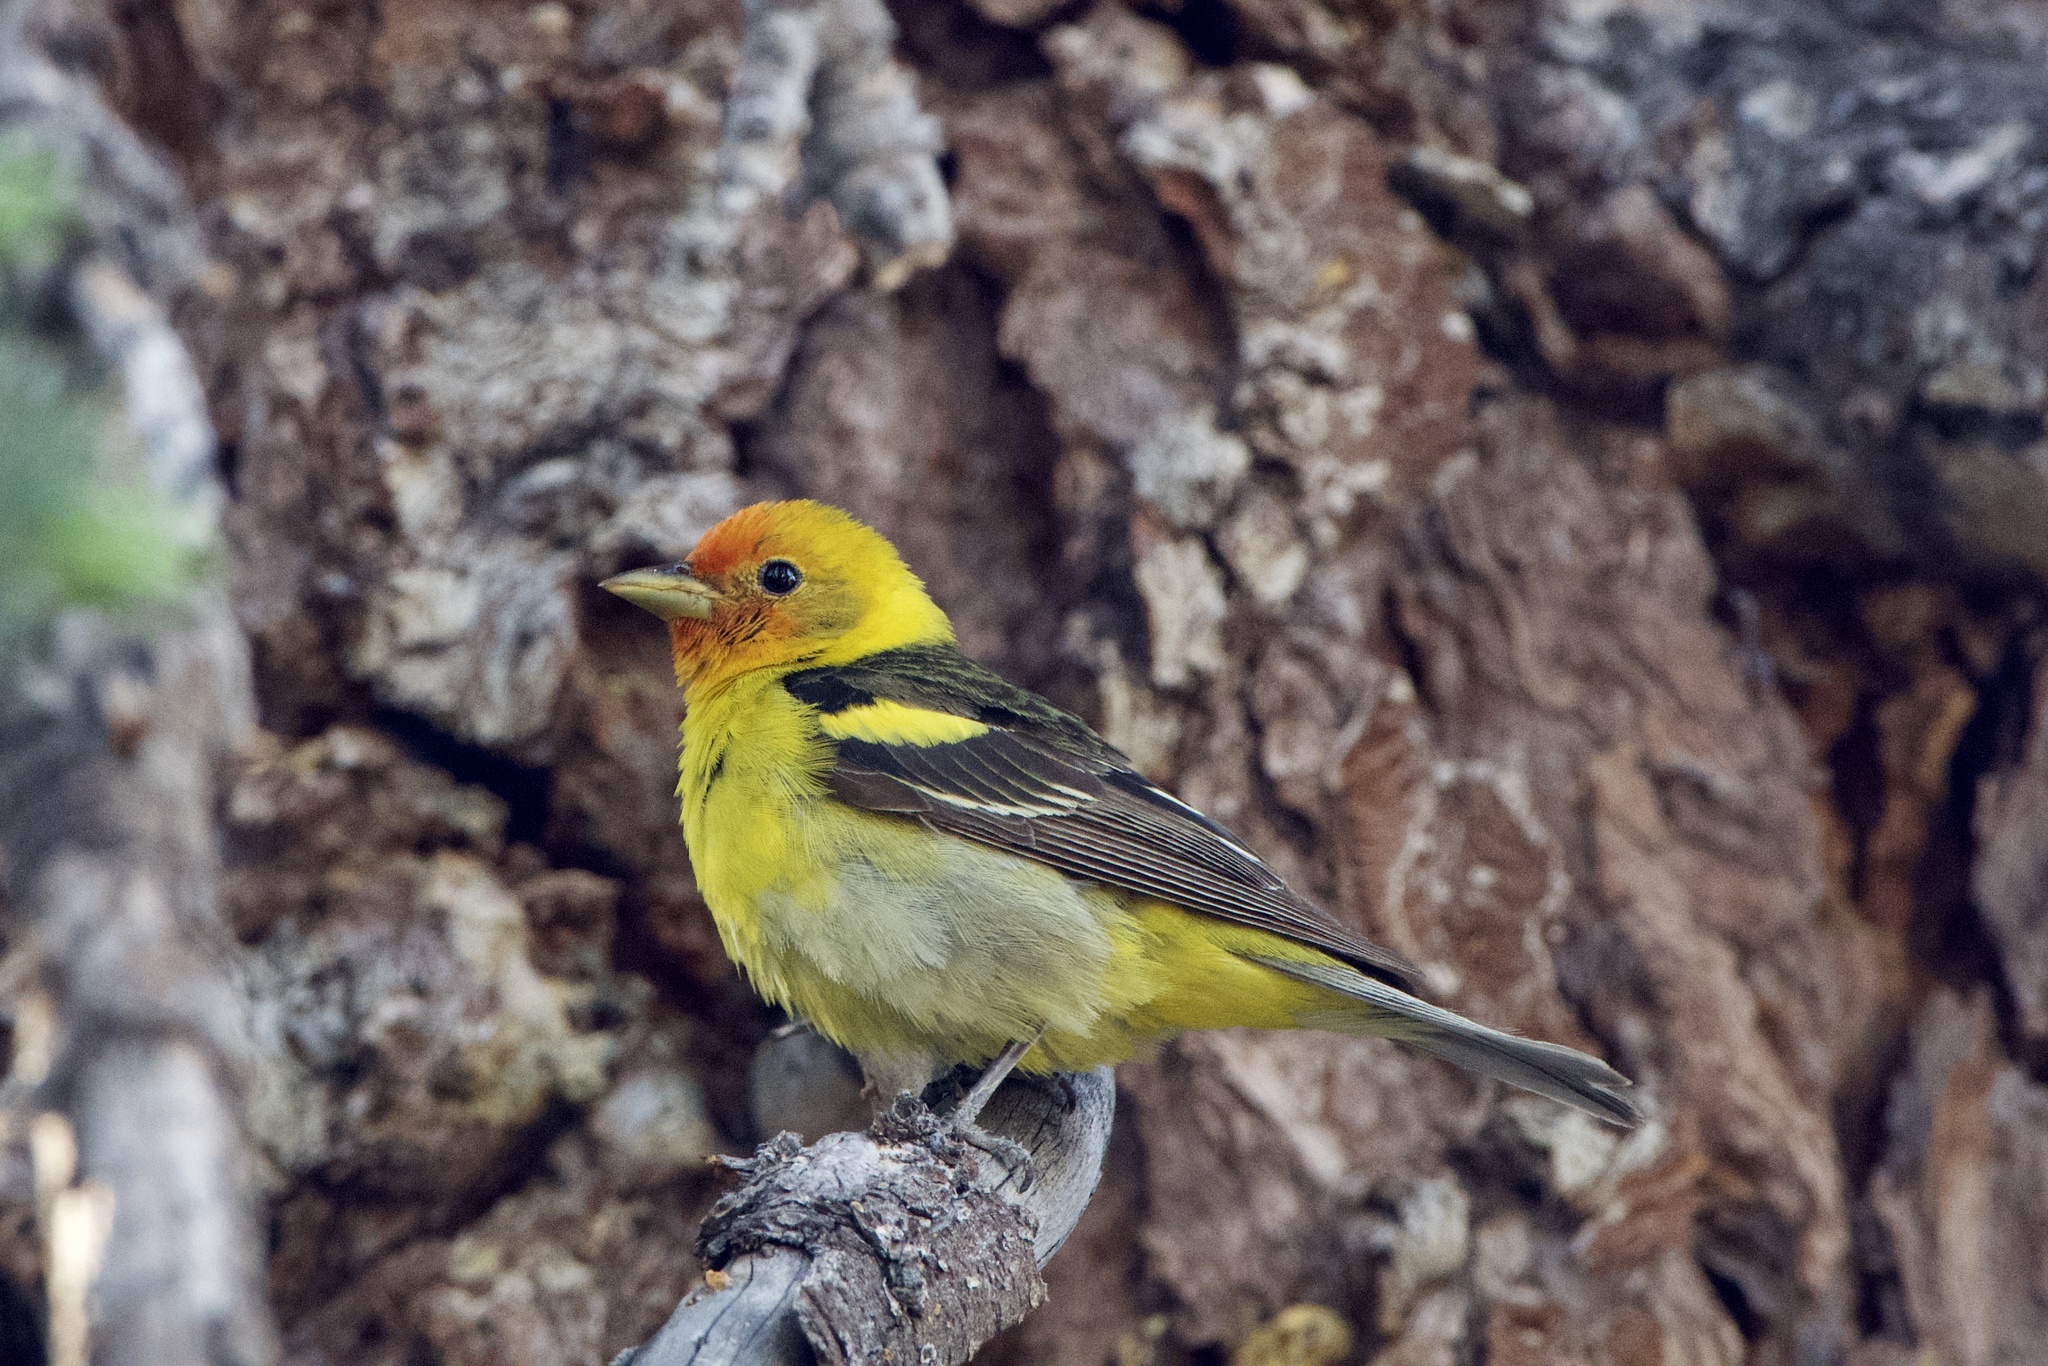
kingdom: Animalia
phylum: Chordata
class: Aves
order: Passeriformes
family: Cardinalidae
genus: Piranga
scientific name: Piranga ludoviciana
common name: Western tanager
